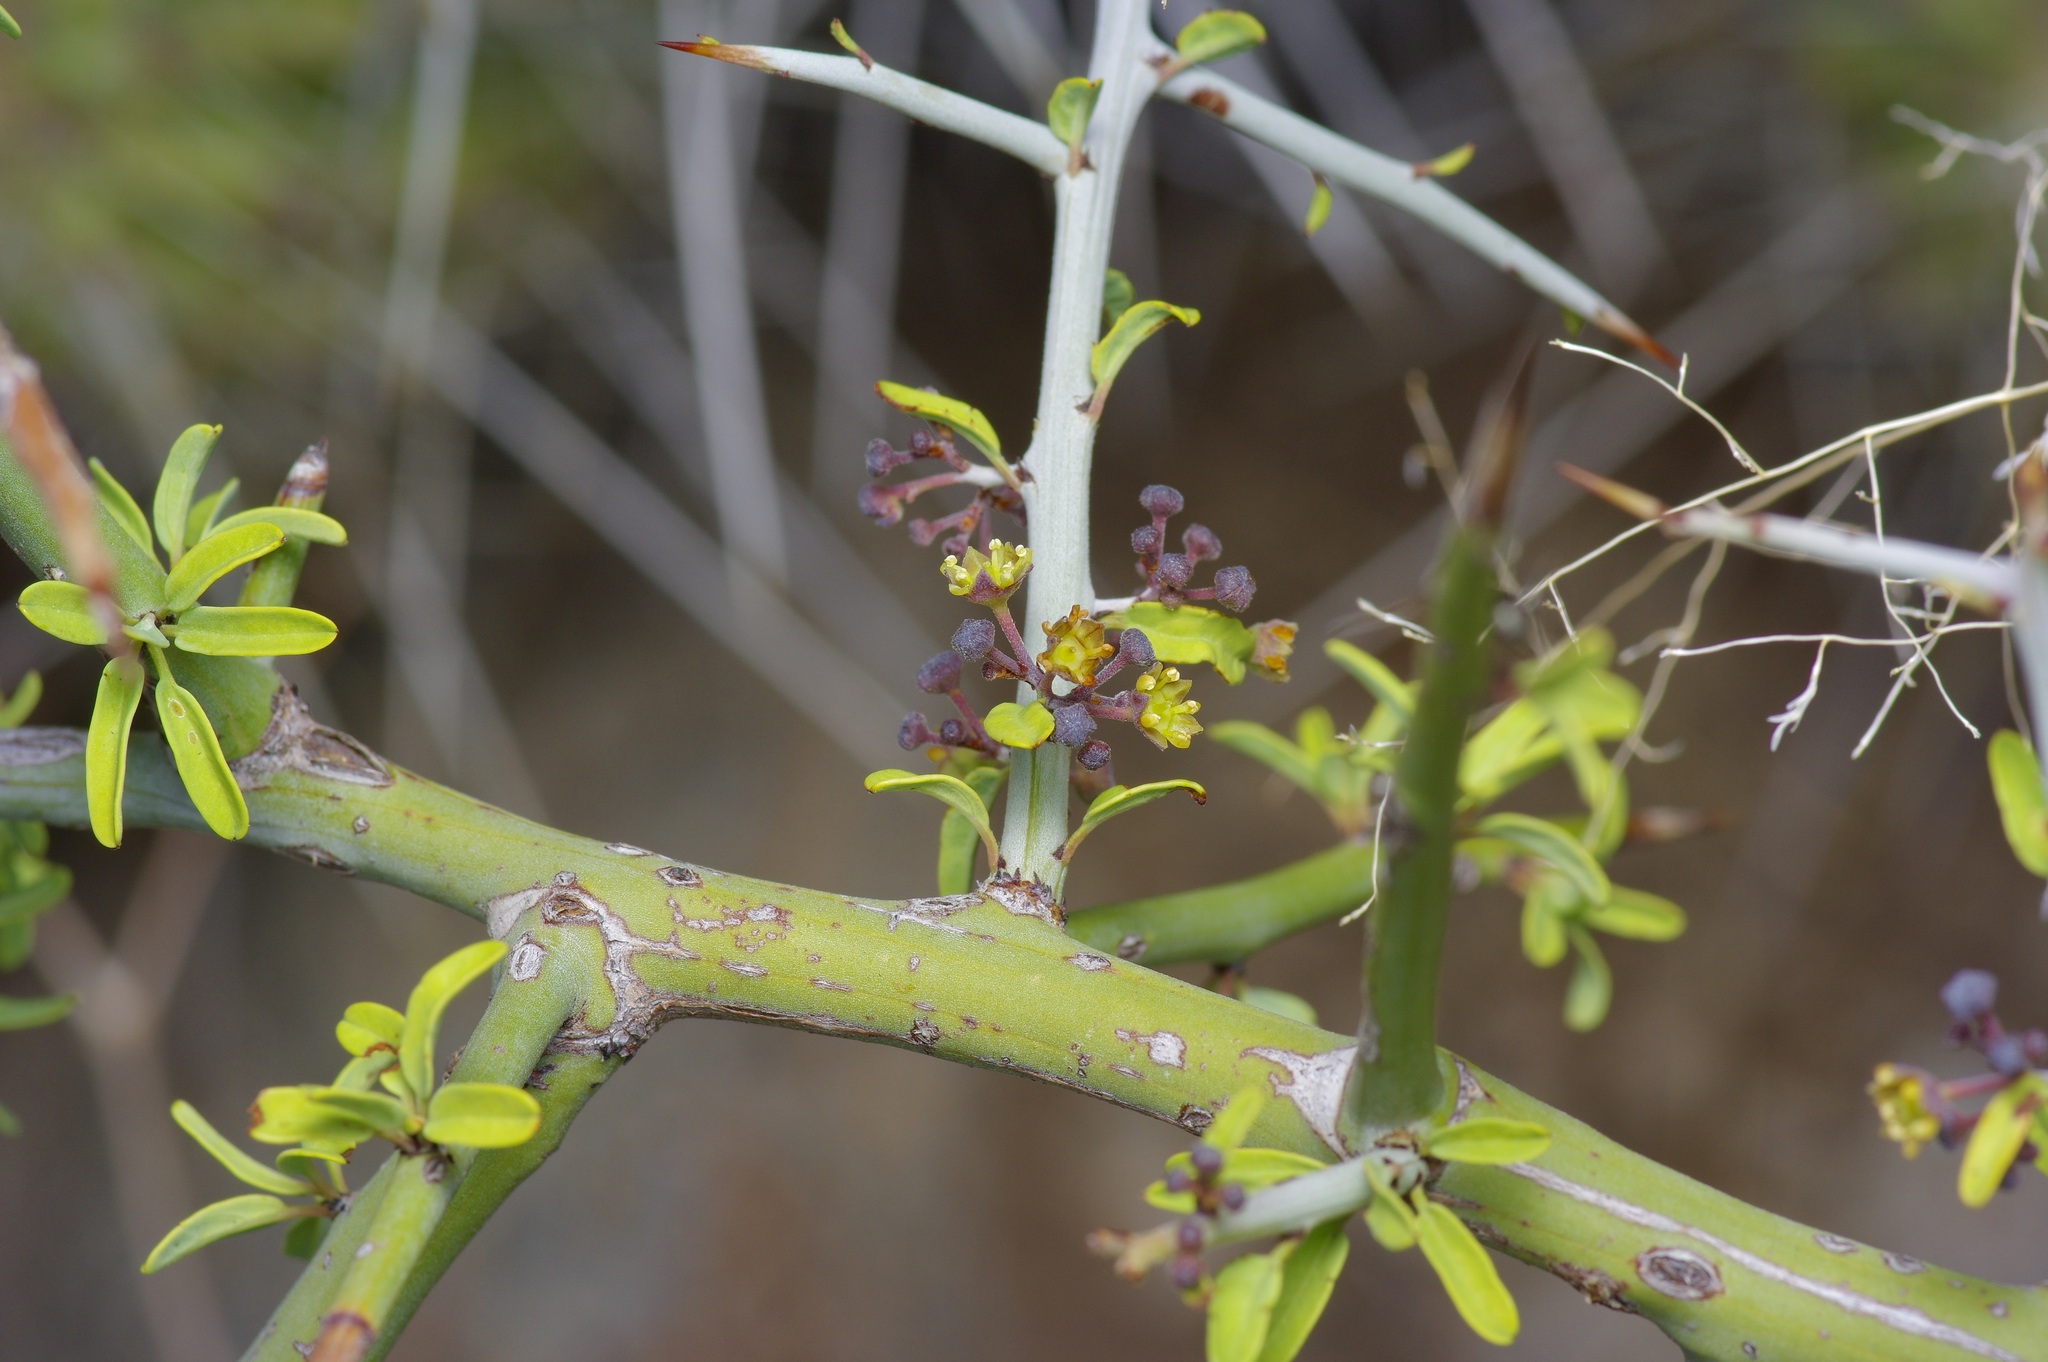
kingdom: Plantae
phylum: Tracheophyta
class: Magnoliopsida
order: Rosales
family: Rhamnaceae
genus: Sarcomphalus
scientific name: Sarcomphalus obtusifolius
